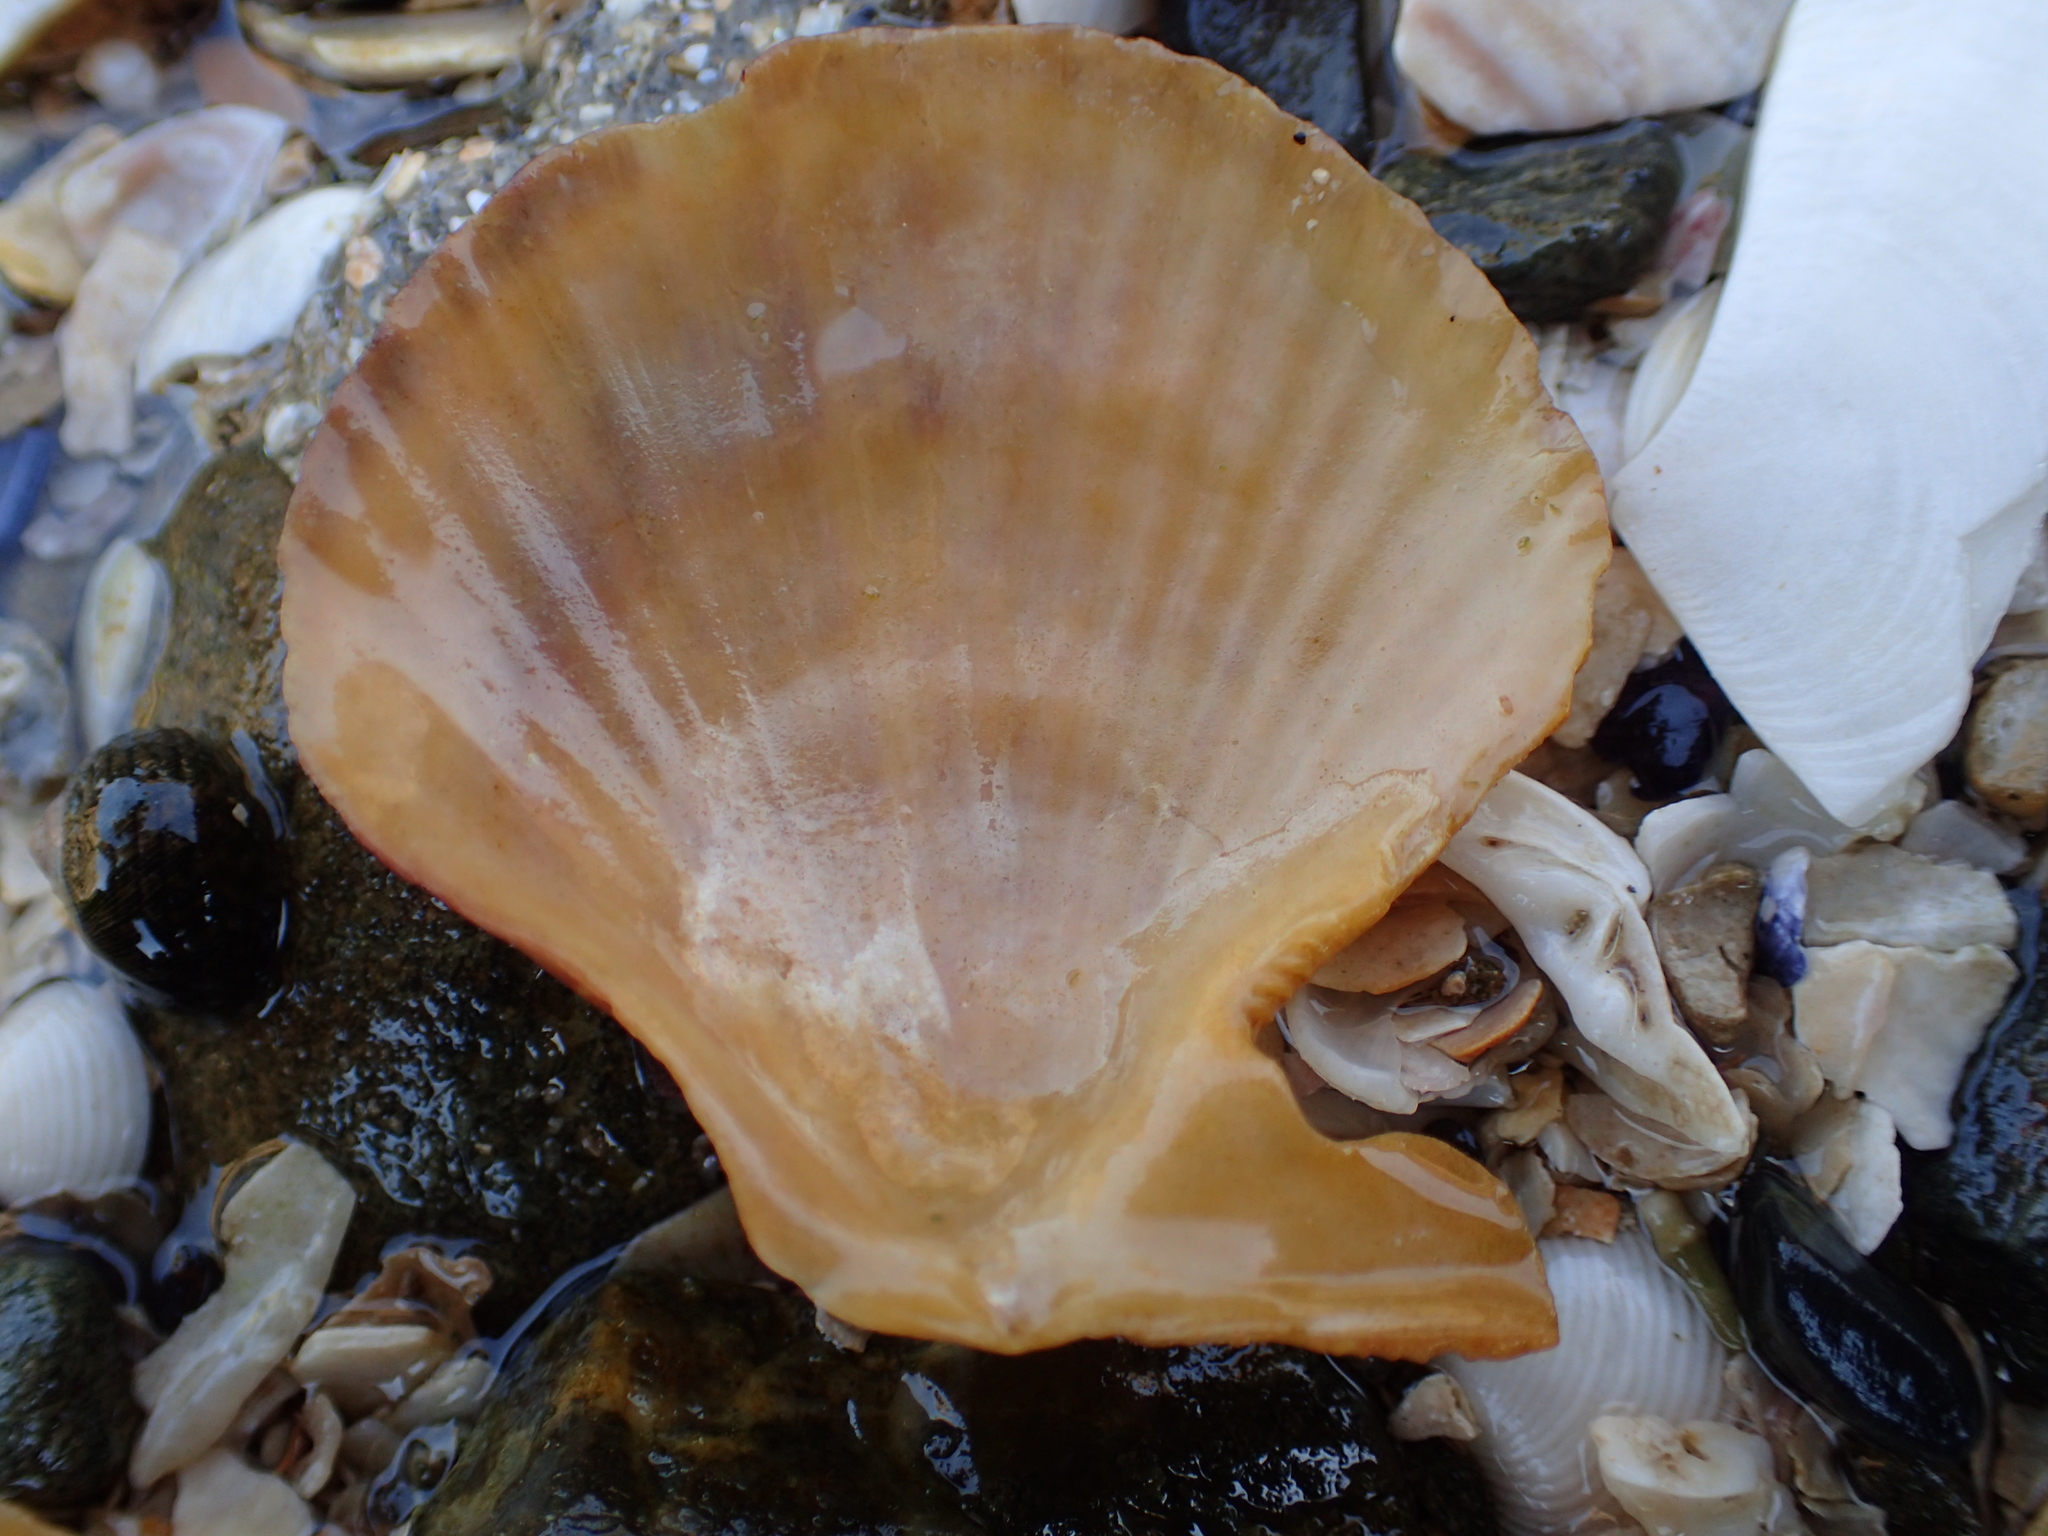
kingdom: Animalia
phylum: Mollusca
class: Bivalvia
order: Pectinida
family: Pectinidae
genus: Talochlamys
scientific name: Talochlamys zelandiae
